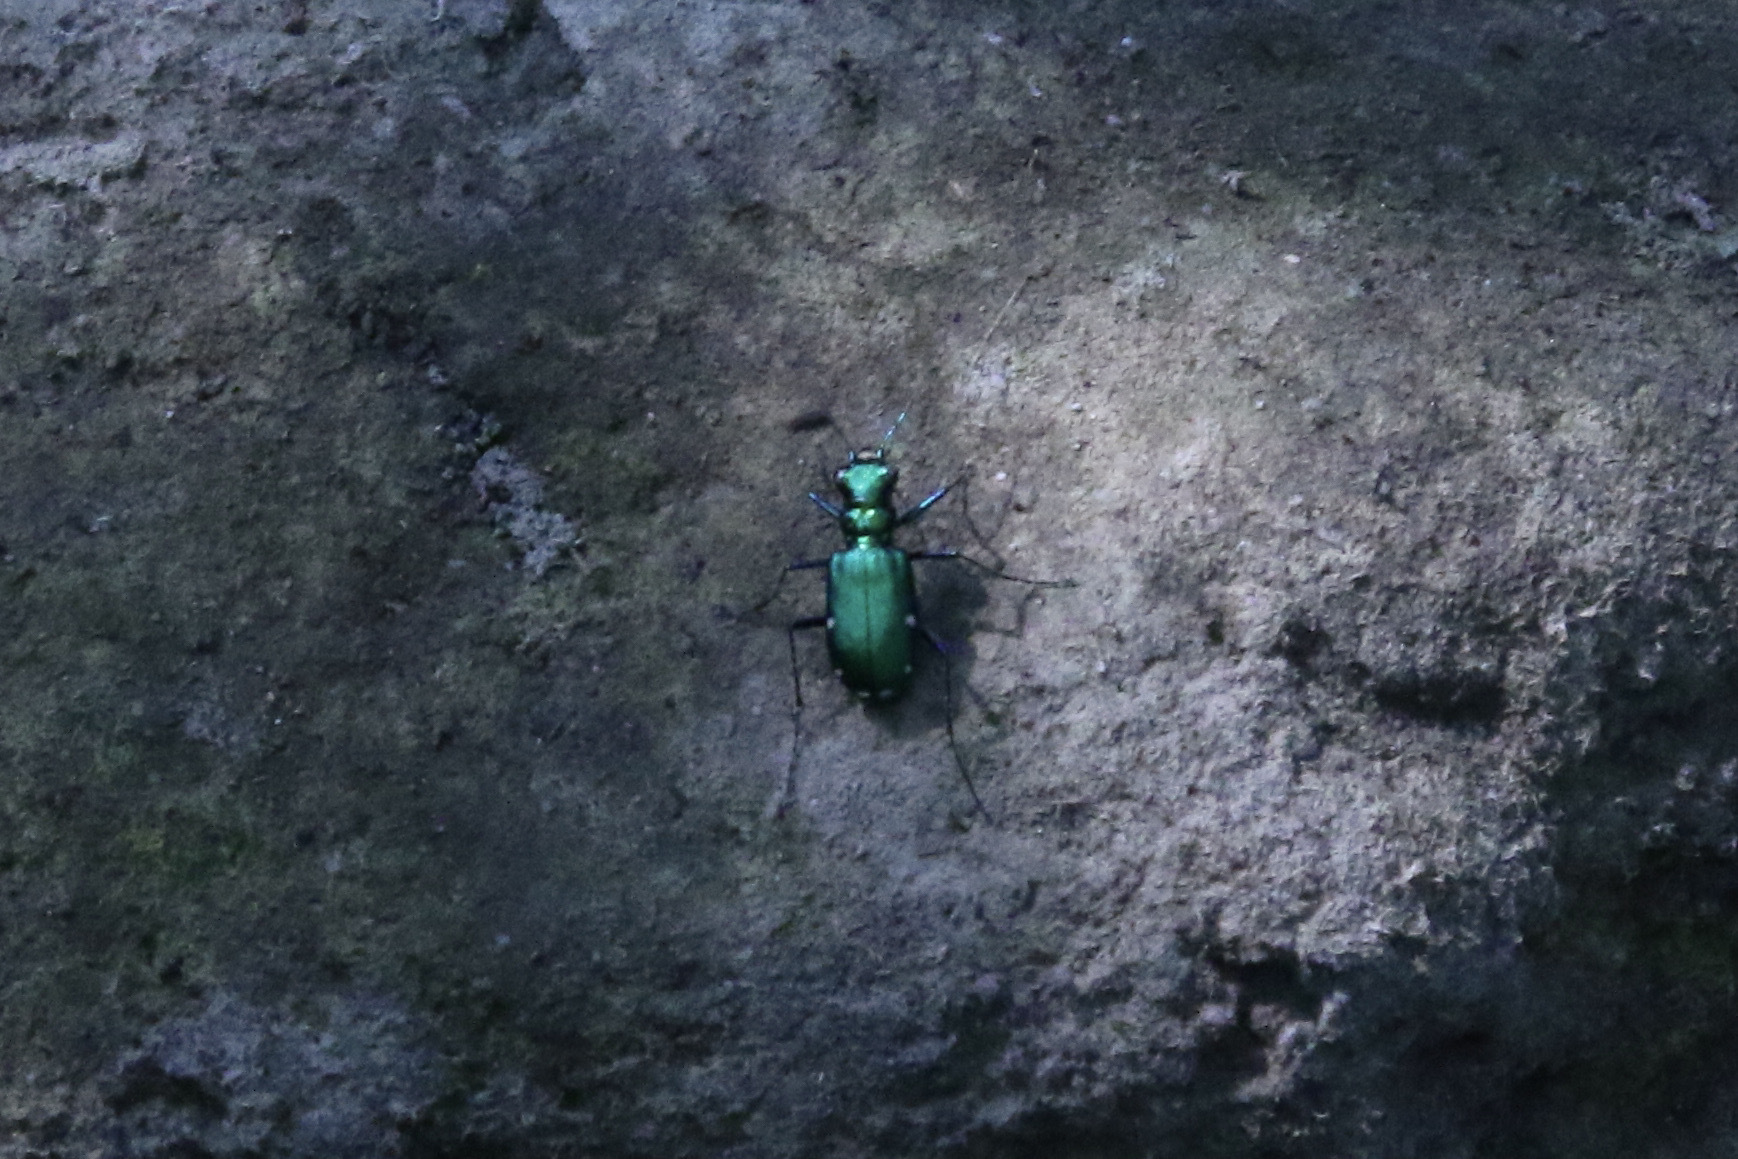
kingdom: Animalia
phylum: Arthropoda
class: Insecta
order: Coleoptera
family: Carabidae
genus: Cicindela
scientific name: Cicindela sexguttata
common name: Six-spotted tiger beetle
